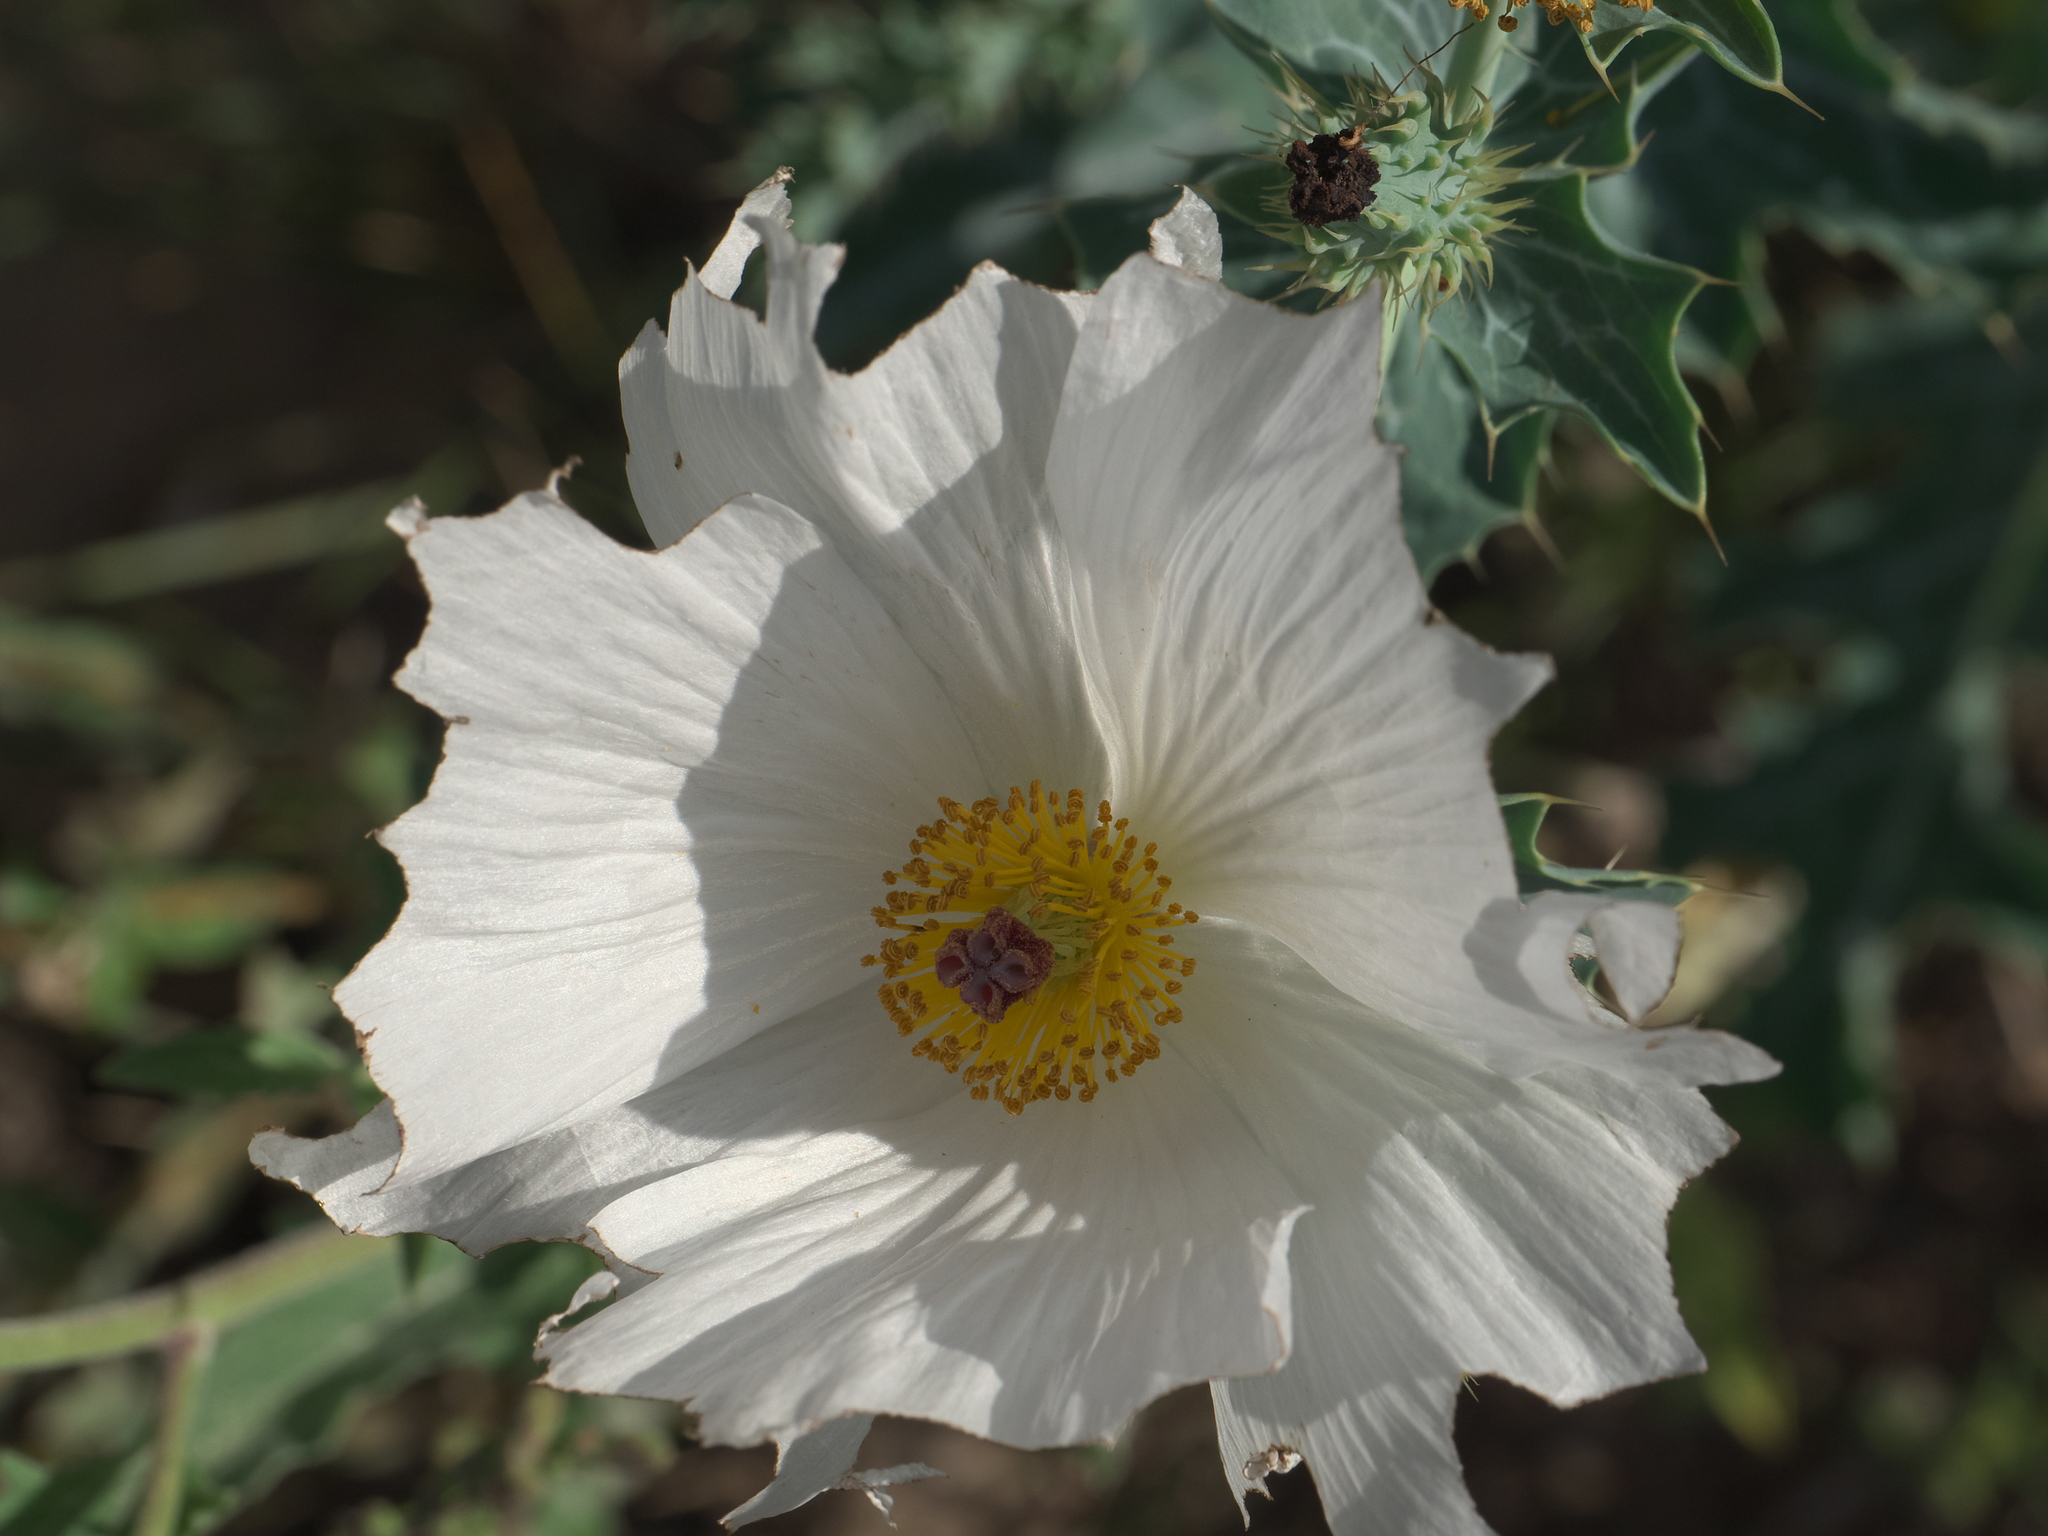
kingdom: Plantae
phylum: Tracheophyta
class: Magnoliopsida
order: Ranunculales
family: Papaveraceae
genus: Argemone
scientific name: Argemone polyanthemos
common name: Plains prickly-poppy
